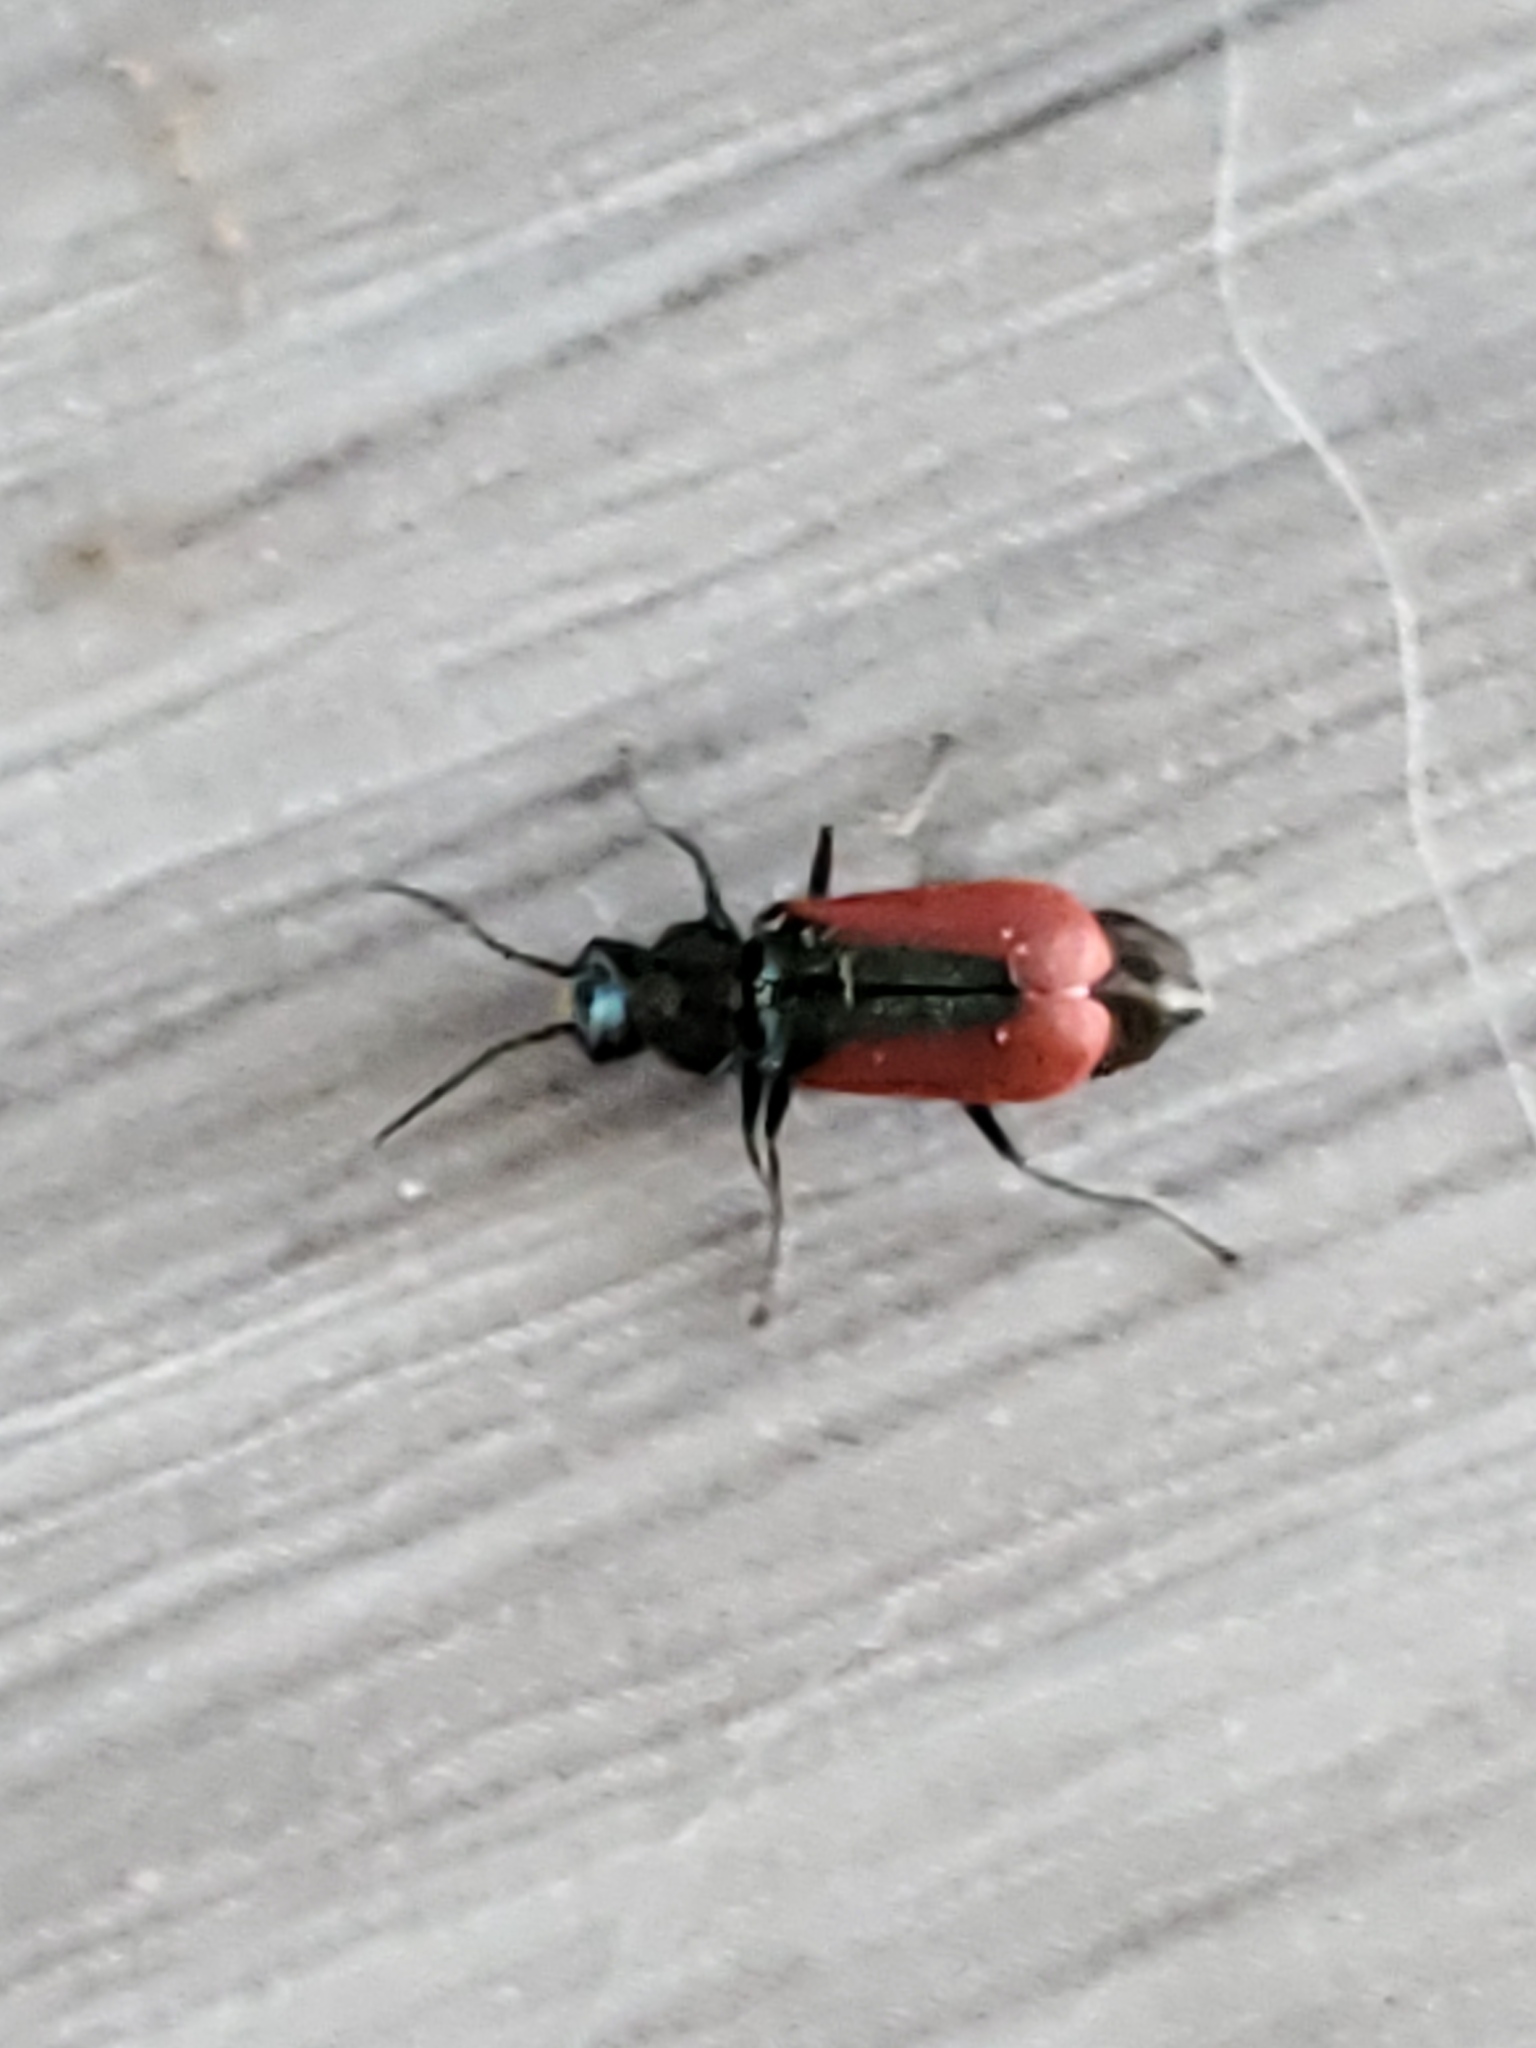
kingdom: Animalia
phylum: Arthropoda
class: Insecta
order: Coleoptera
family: Melyridae
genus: Malachius
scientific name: Malachius aeneus
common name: Scarlet malachite beetle
